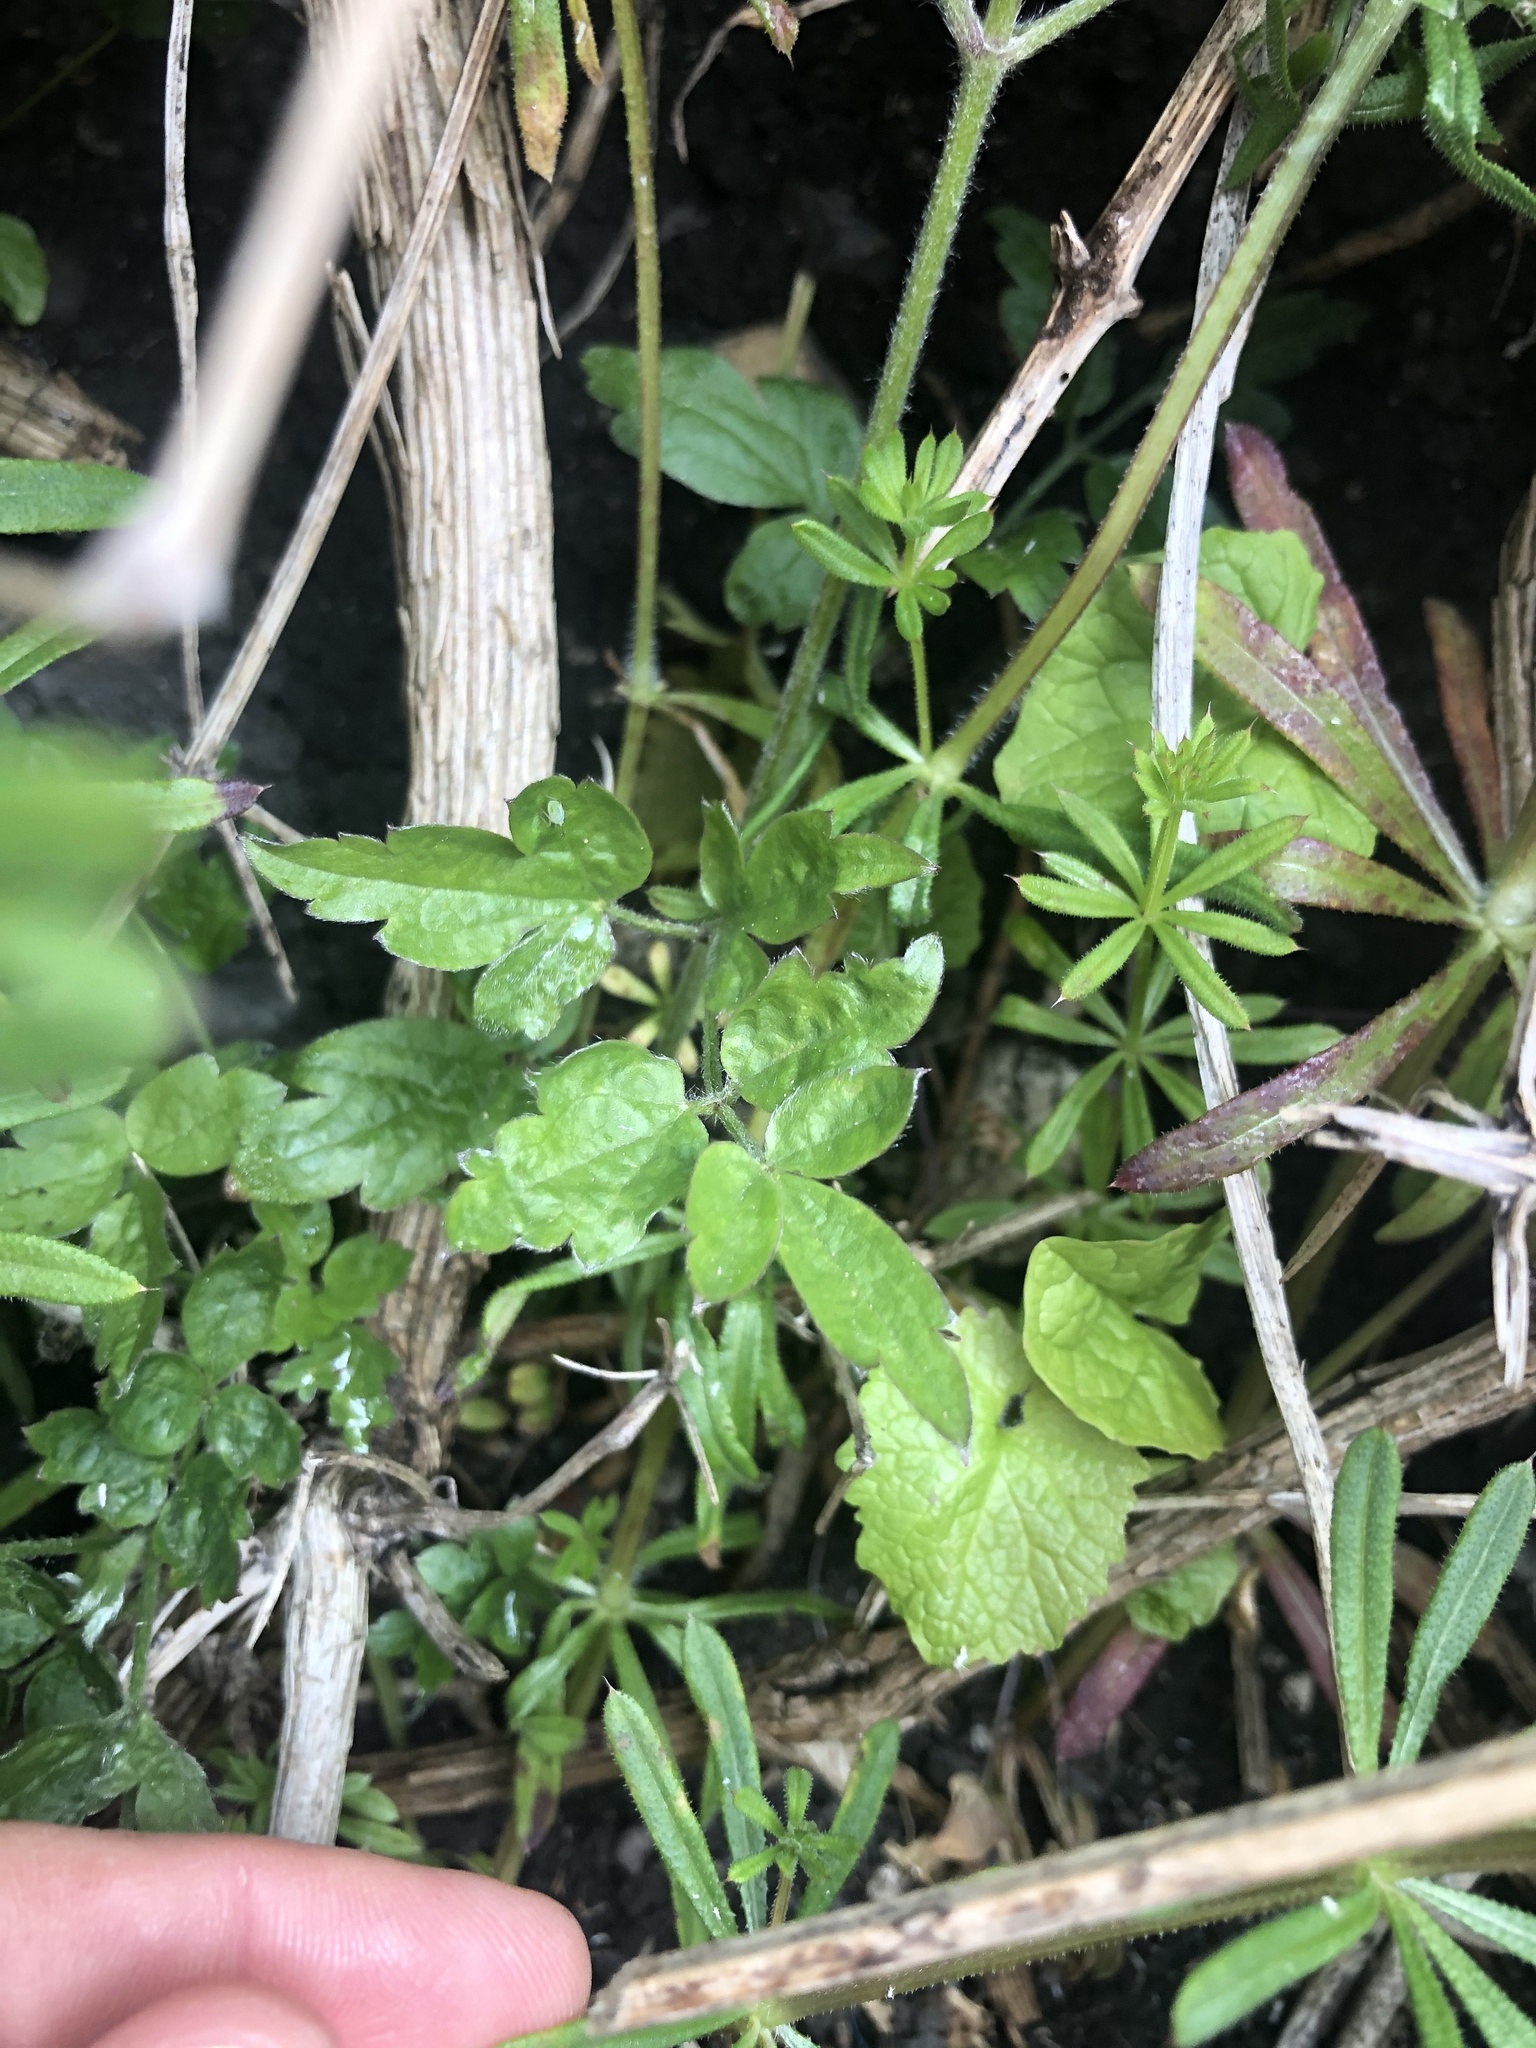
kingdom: Plantae
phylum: Tracheophyta
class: Magnoliopsida
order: Ranunculales
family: Ranunculaceae
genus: Clematis
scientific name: Clematis vitalba
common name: Evergreen clematis
